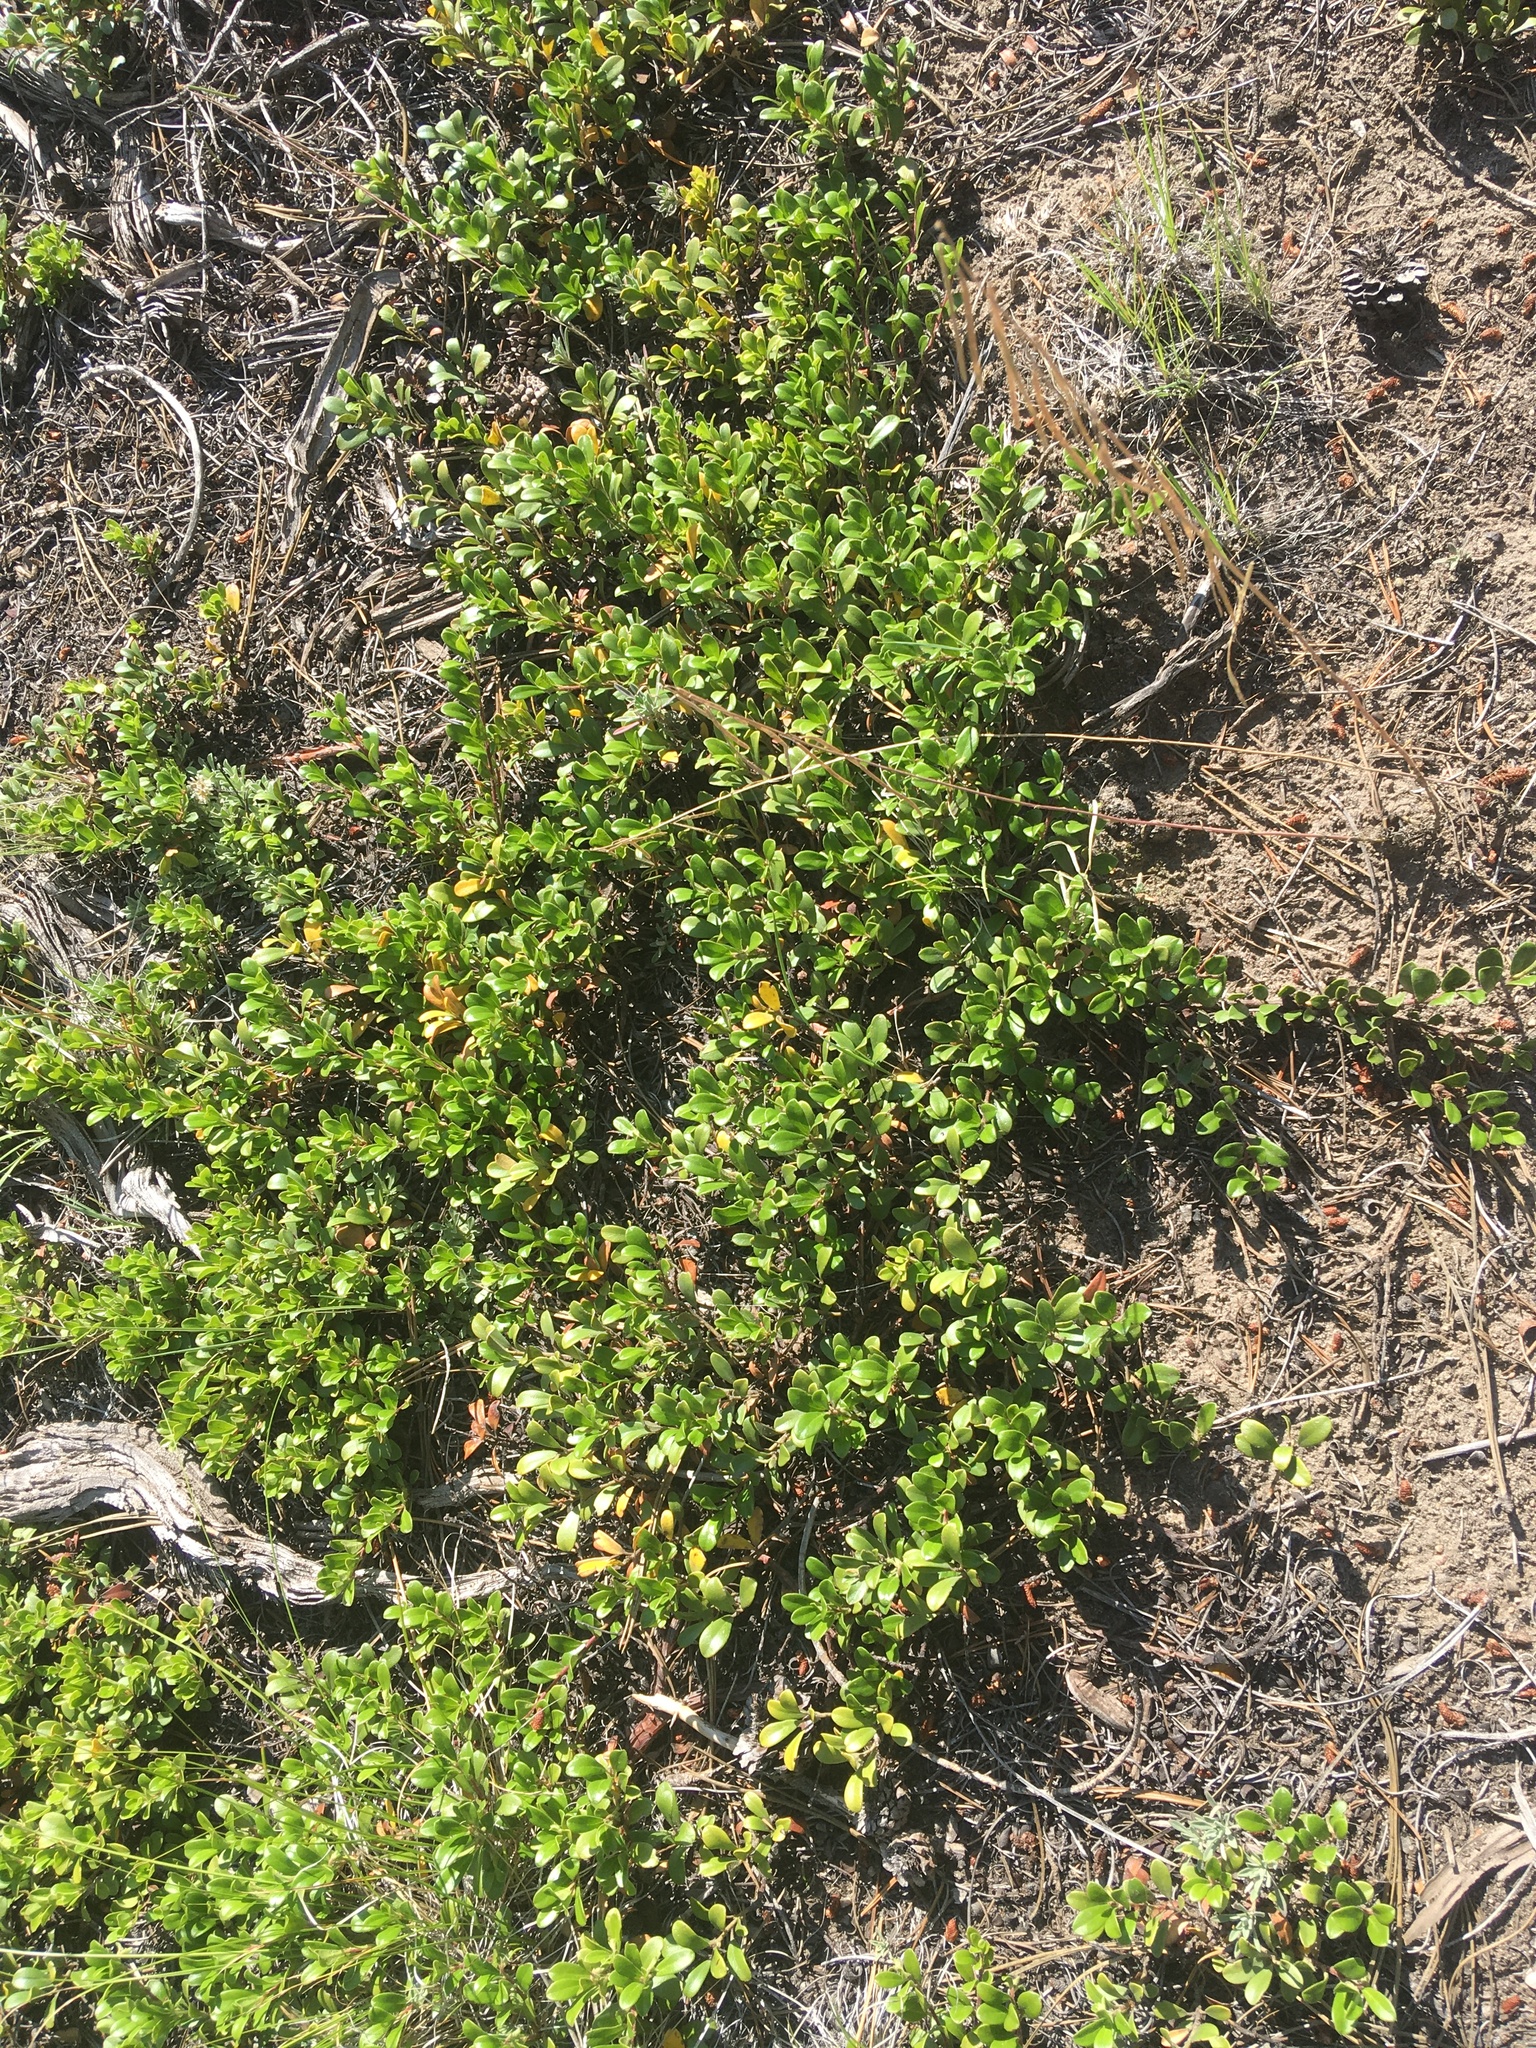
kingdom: Plantae
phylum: Tracheophyta
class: Magnoliopsida
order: Ericales
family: Ericaceae
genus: Arctostaphylos
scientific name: Arctostaphylos uva-ursi
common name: Bearberry
